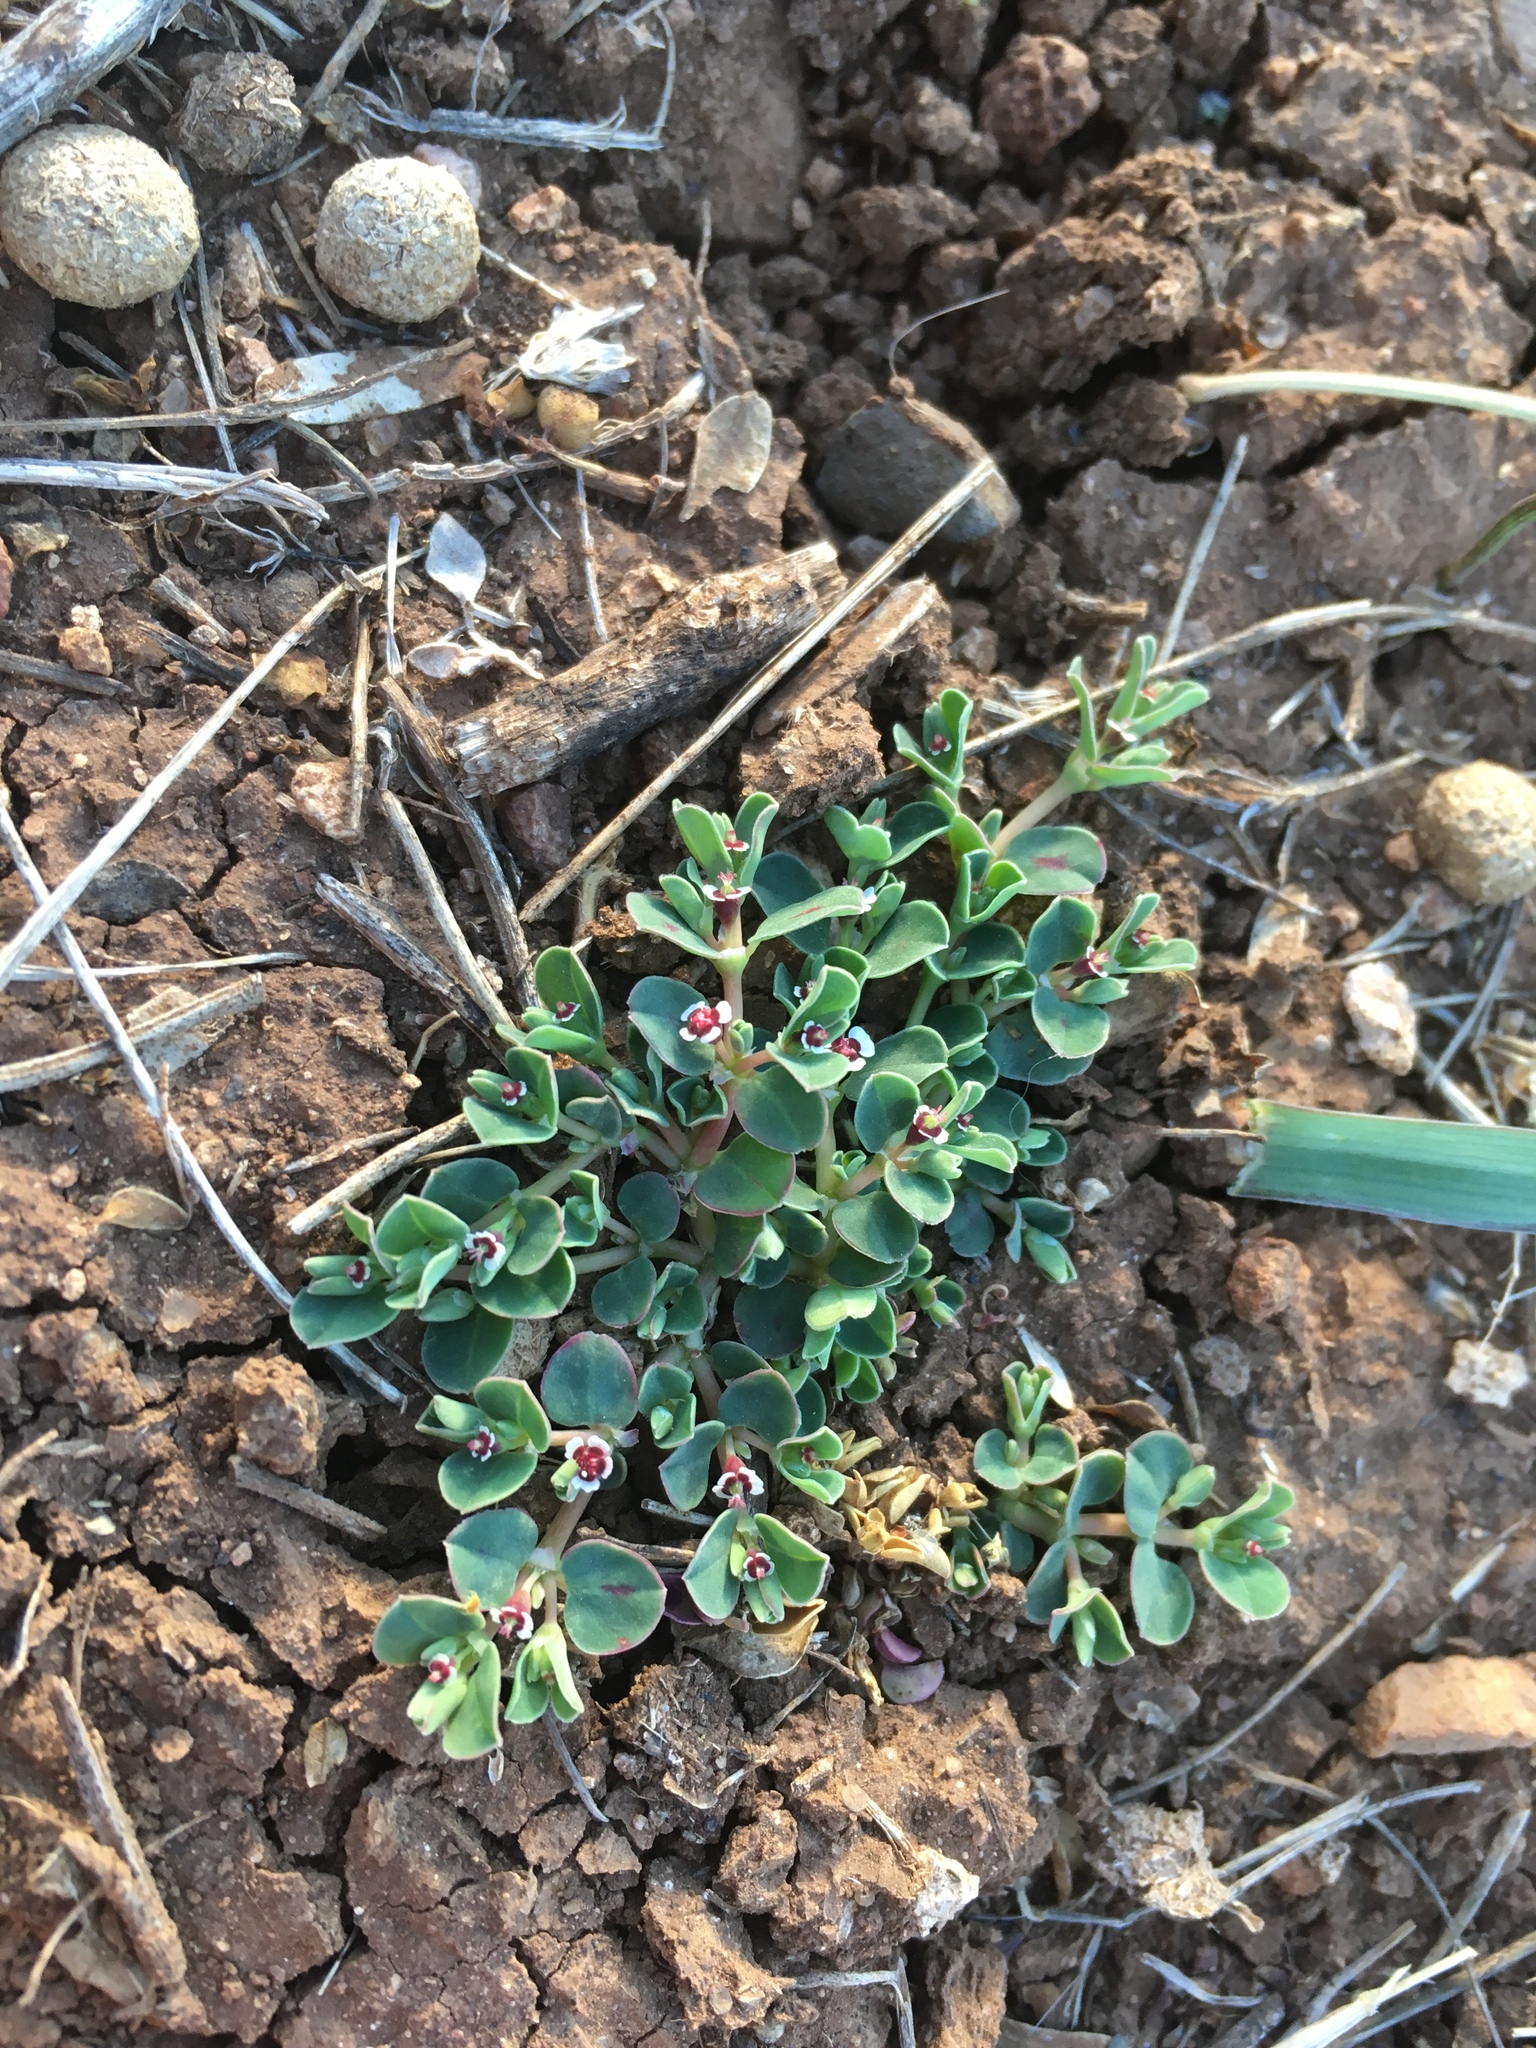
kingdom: Plantae
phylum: Tracheophyta
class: Magnoliopsida
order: Malpighiales
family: Euphorbiaceae
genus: Euphorbia
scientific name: Euphorbia albomarginata
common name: Whitemargin sandmat
